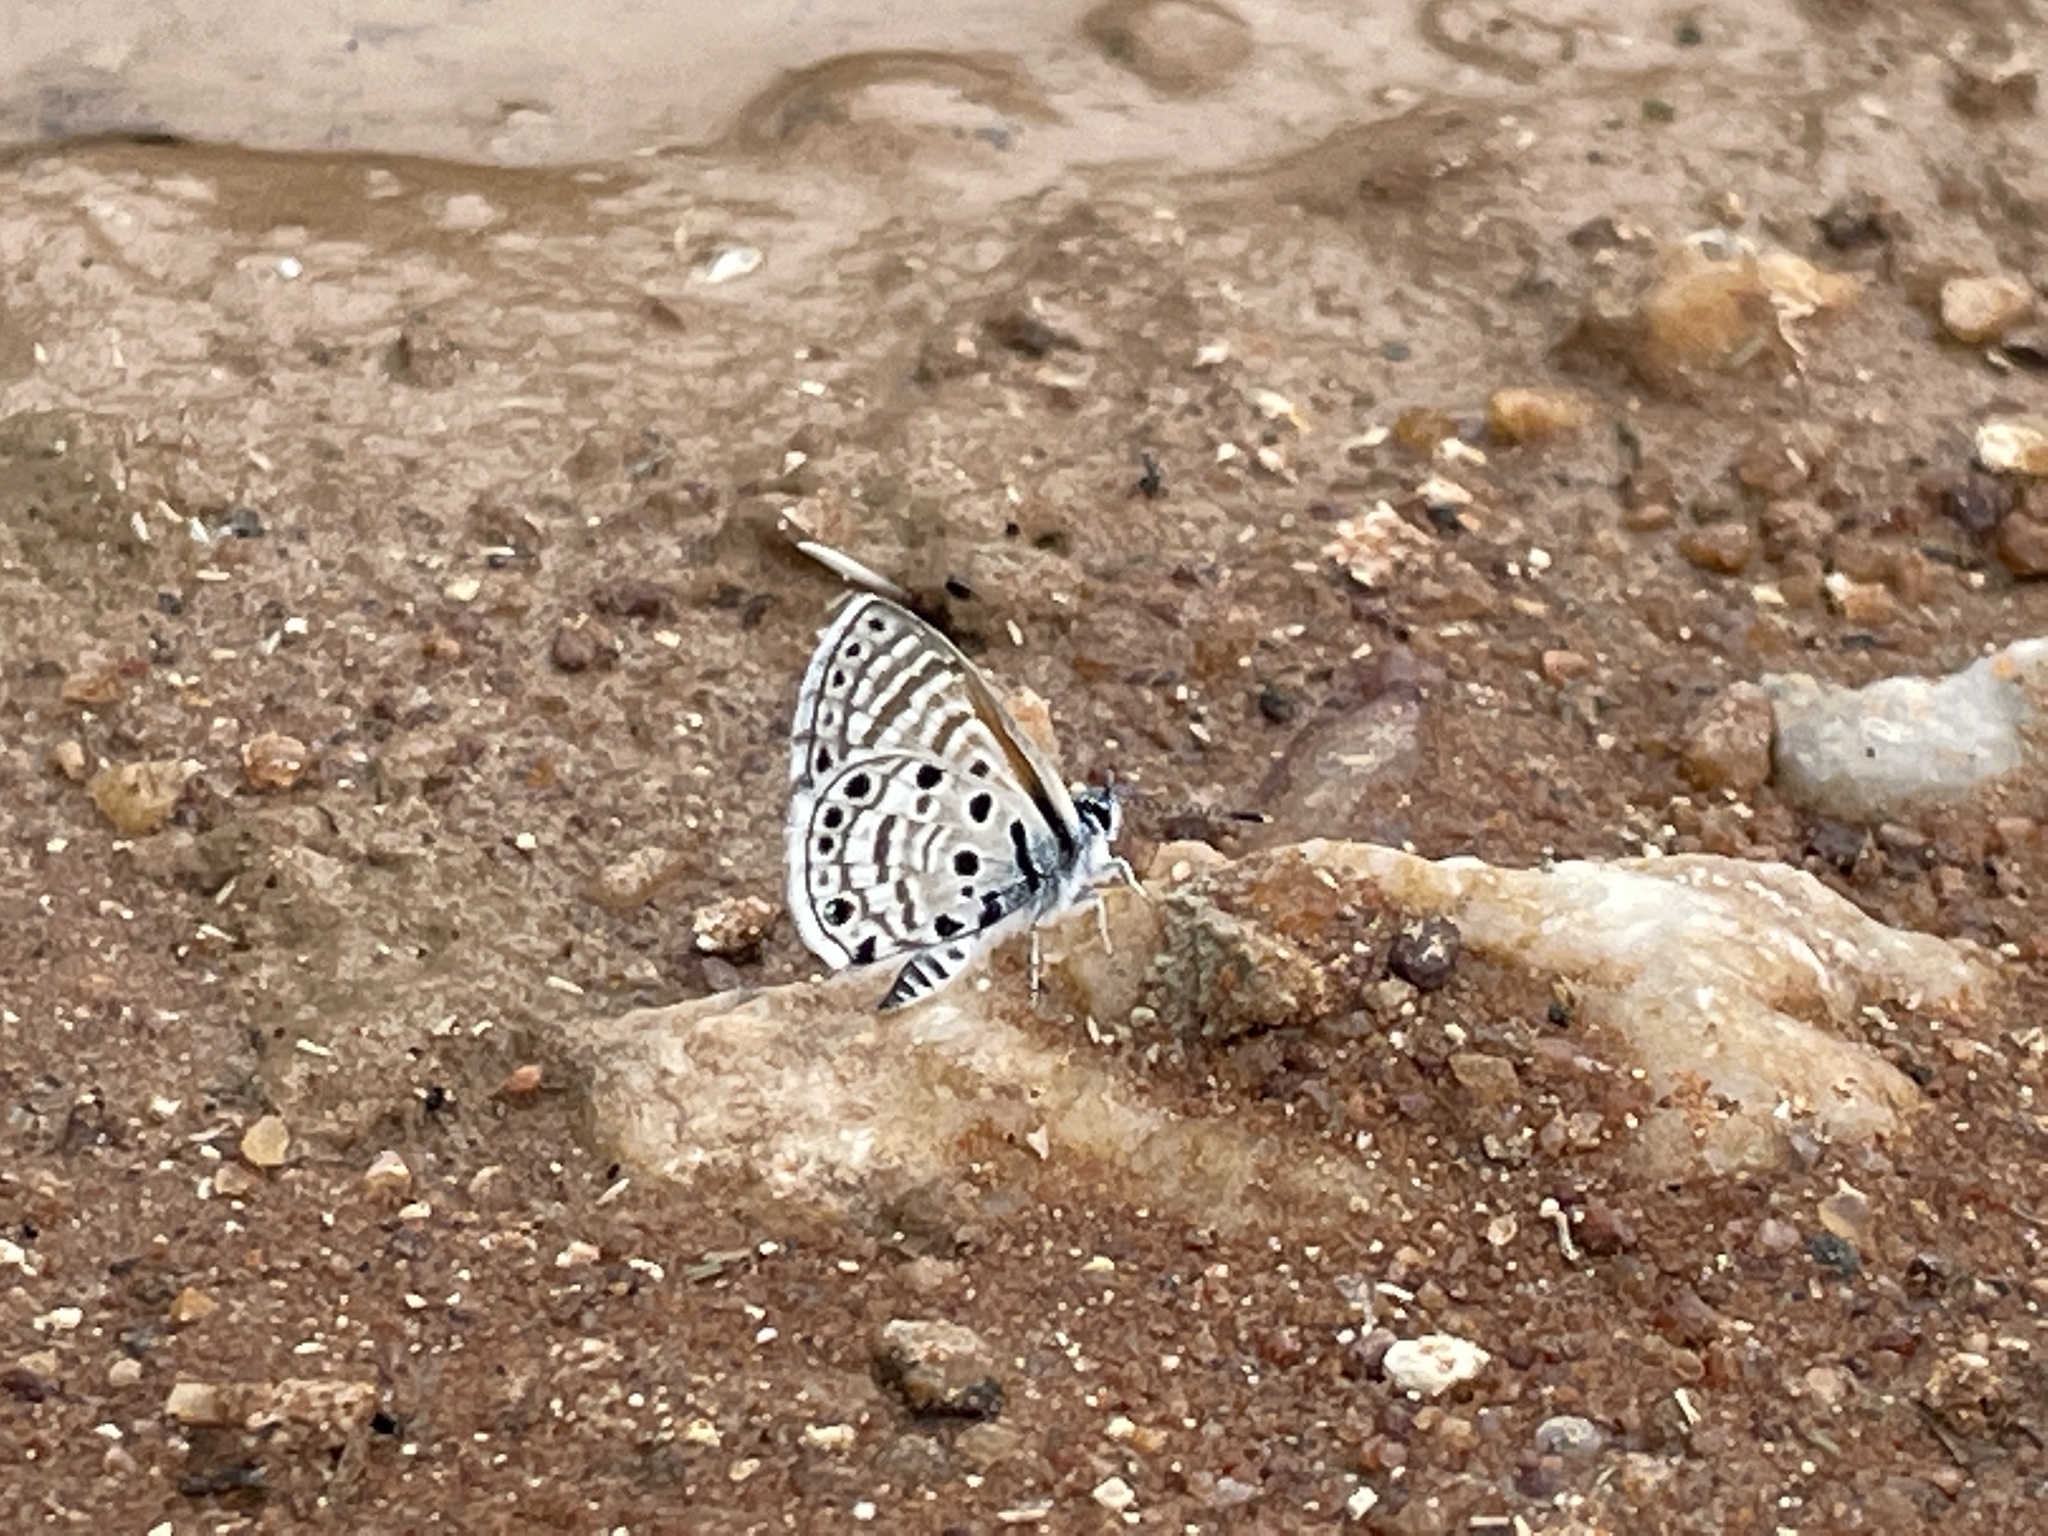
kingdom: Animalia
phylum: Arthropoda
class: Insecta
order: Lepidoptera
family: Lycaenidae
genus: Azanus
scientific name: Azanus jesous
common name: African babul blue
